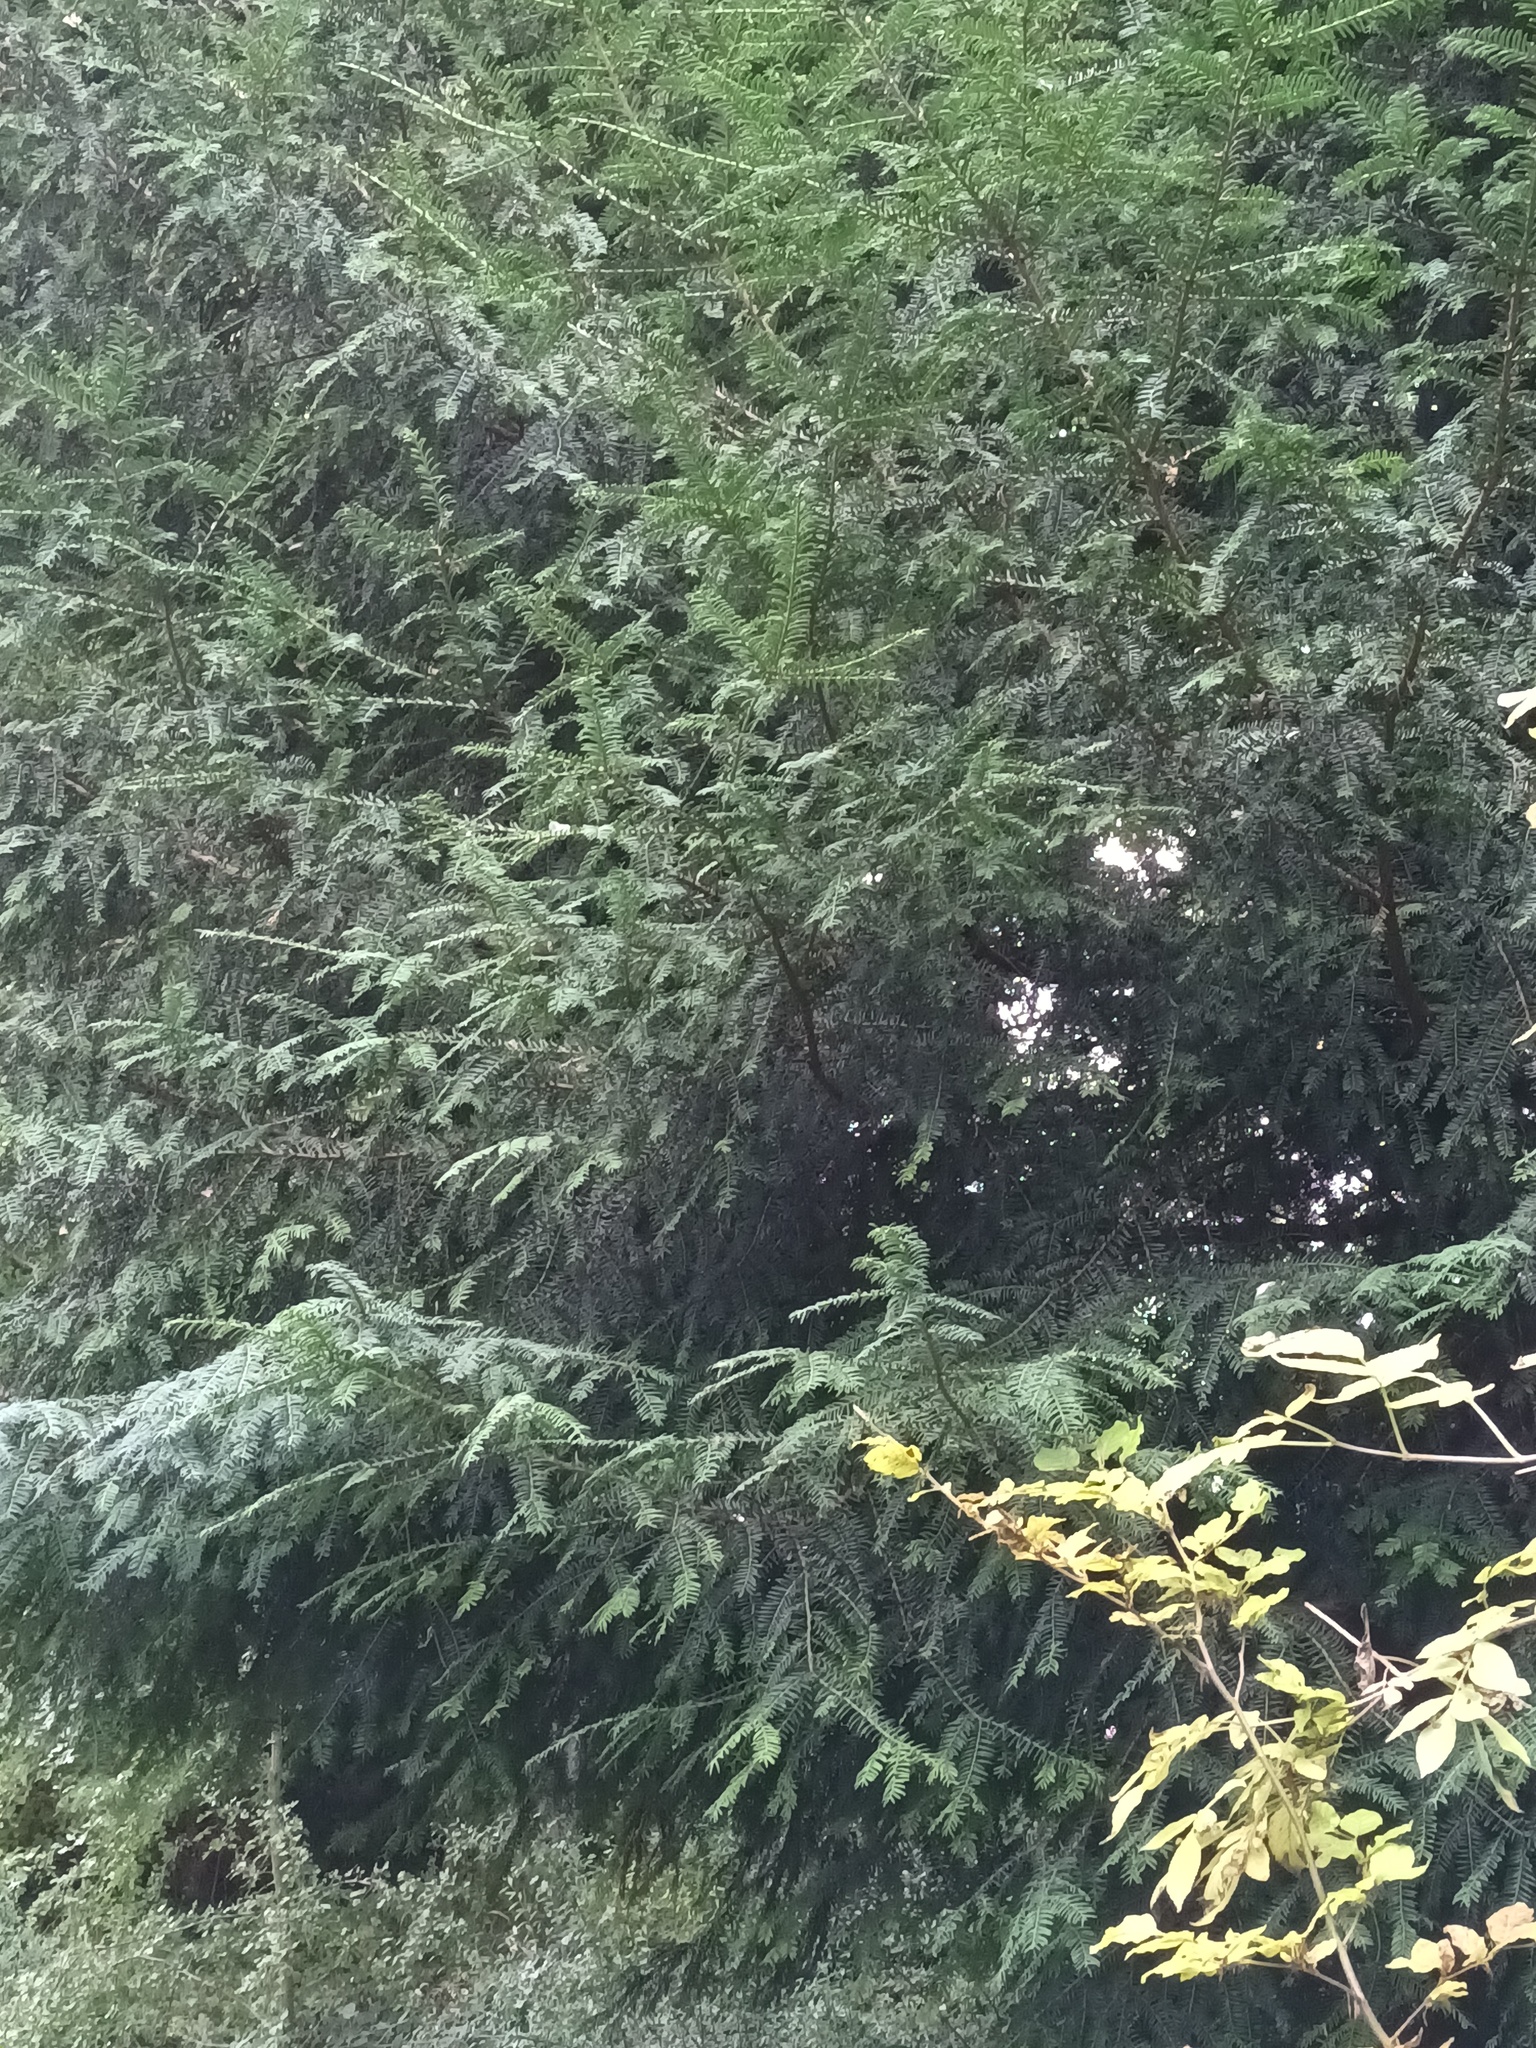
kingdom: Plantae
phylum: Tracheophyta
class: Pinopsida
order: Pinales
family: Taxaceae
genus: Taxus
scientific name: Taxus baccata
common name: Yew
